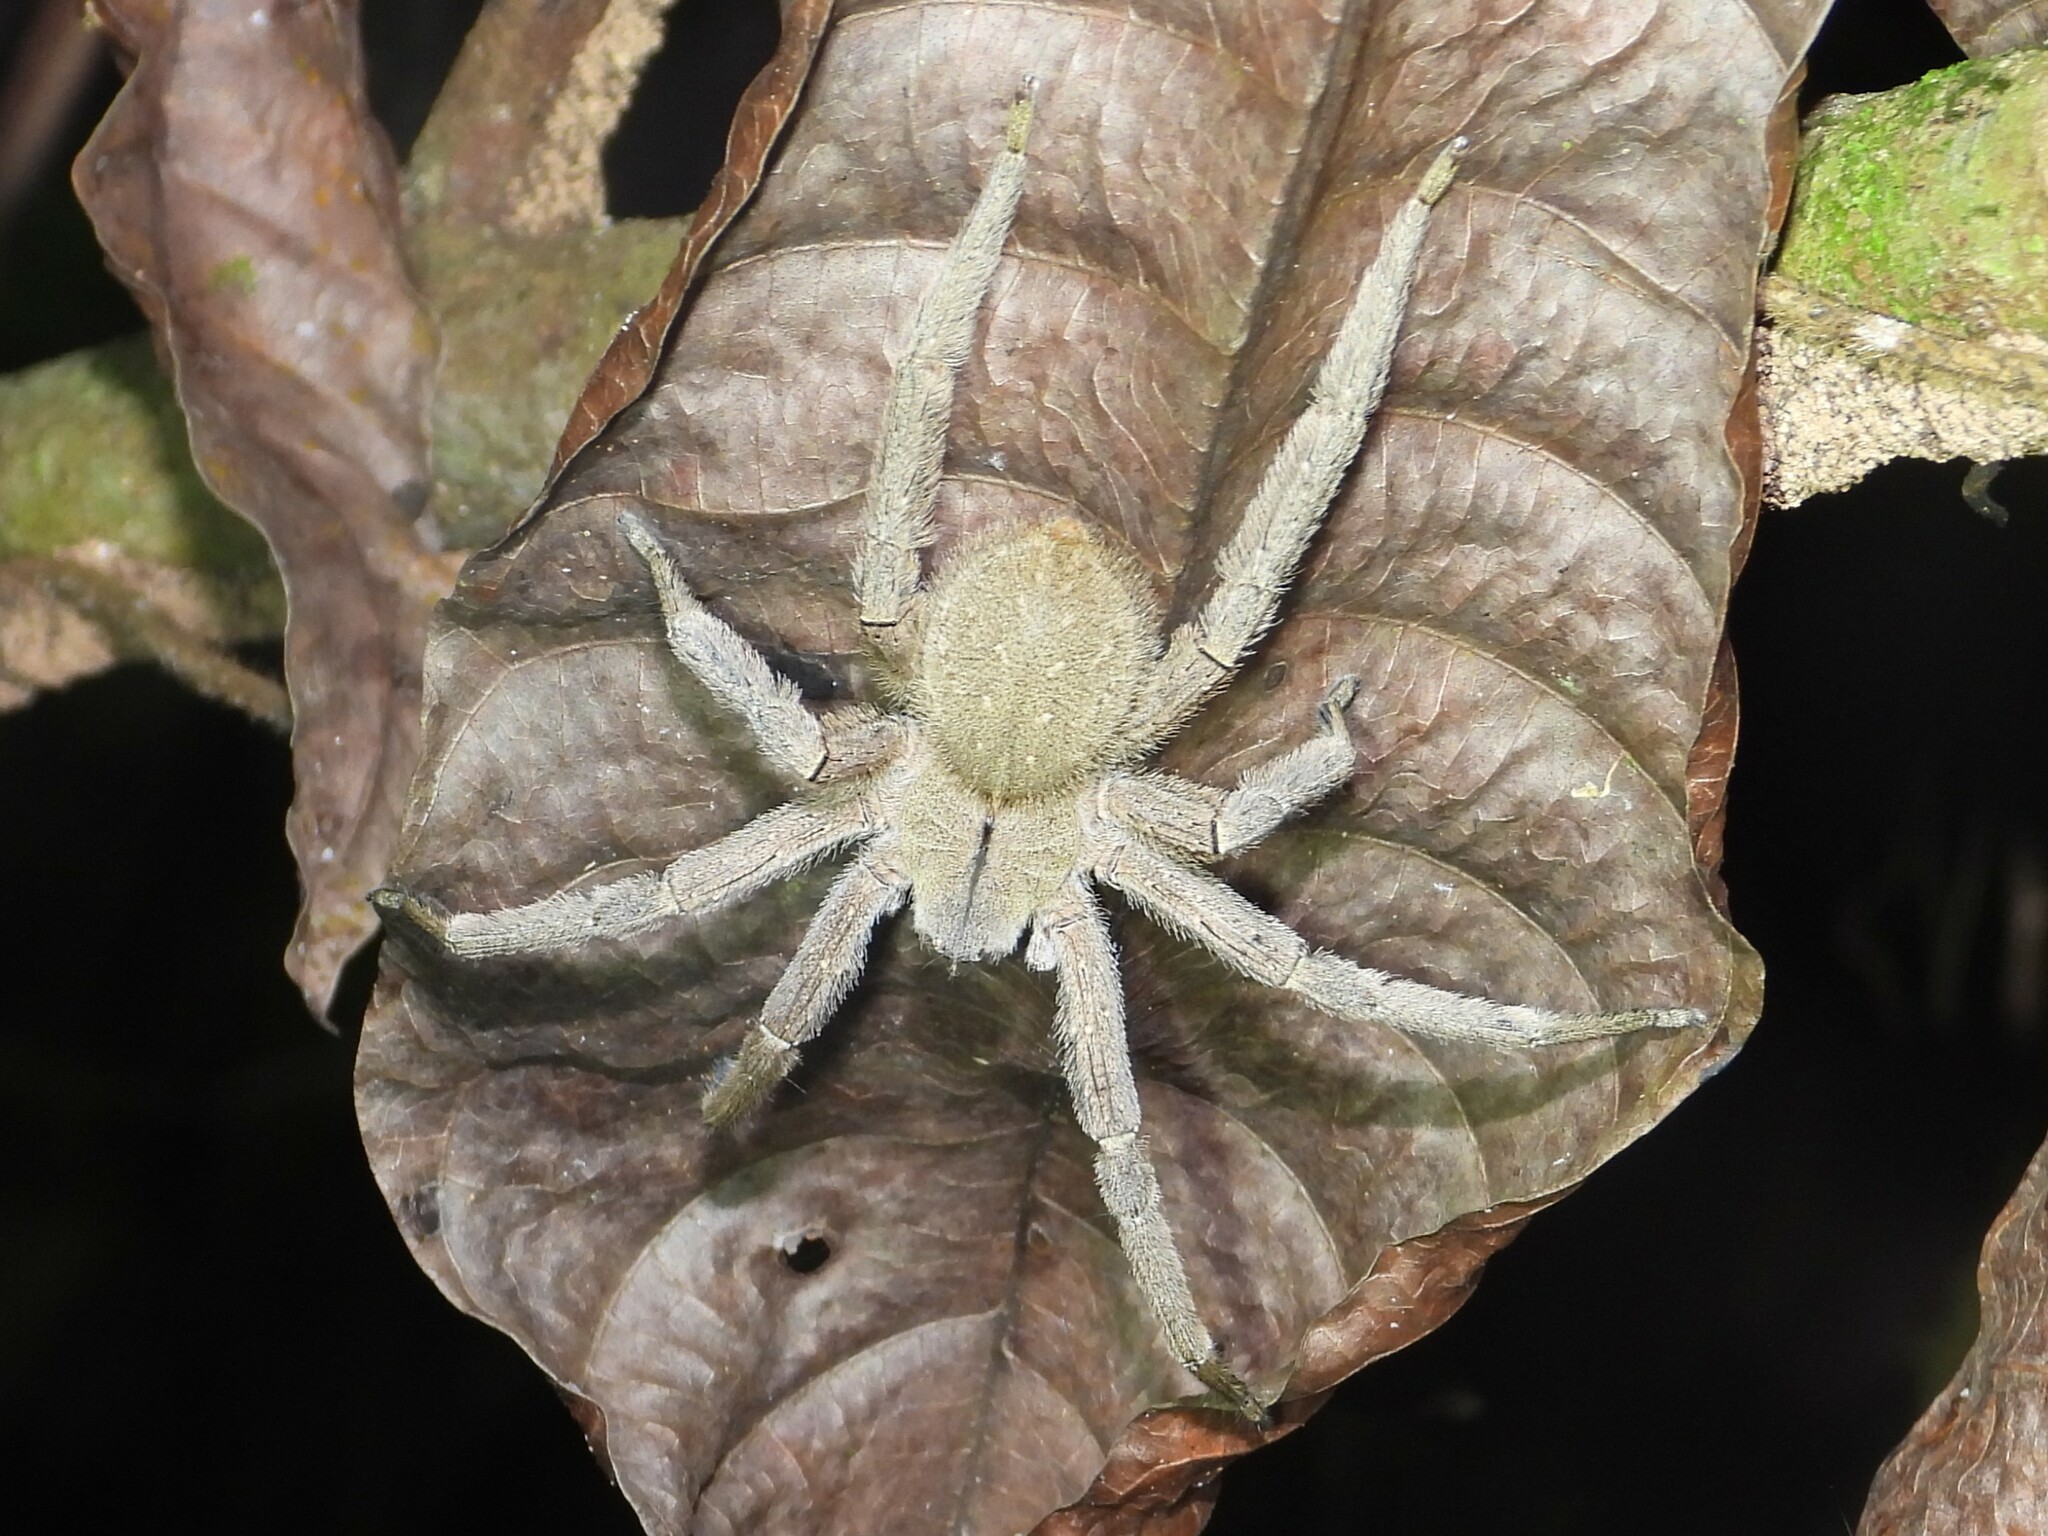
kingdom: Animalia
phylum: Arthropoda
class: Arachnida
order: Araneae
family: Ctenidae
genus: Phoneutria
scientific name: Phoneutria depilata
